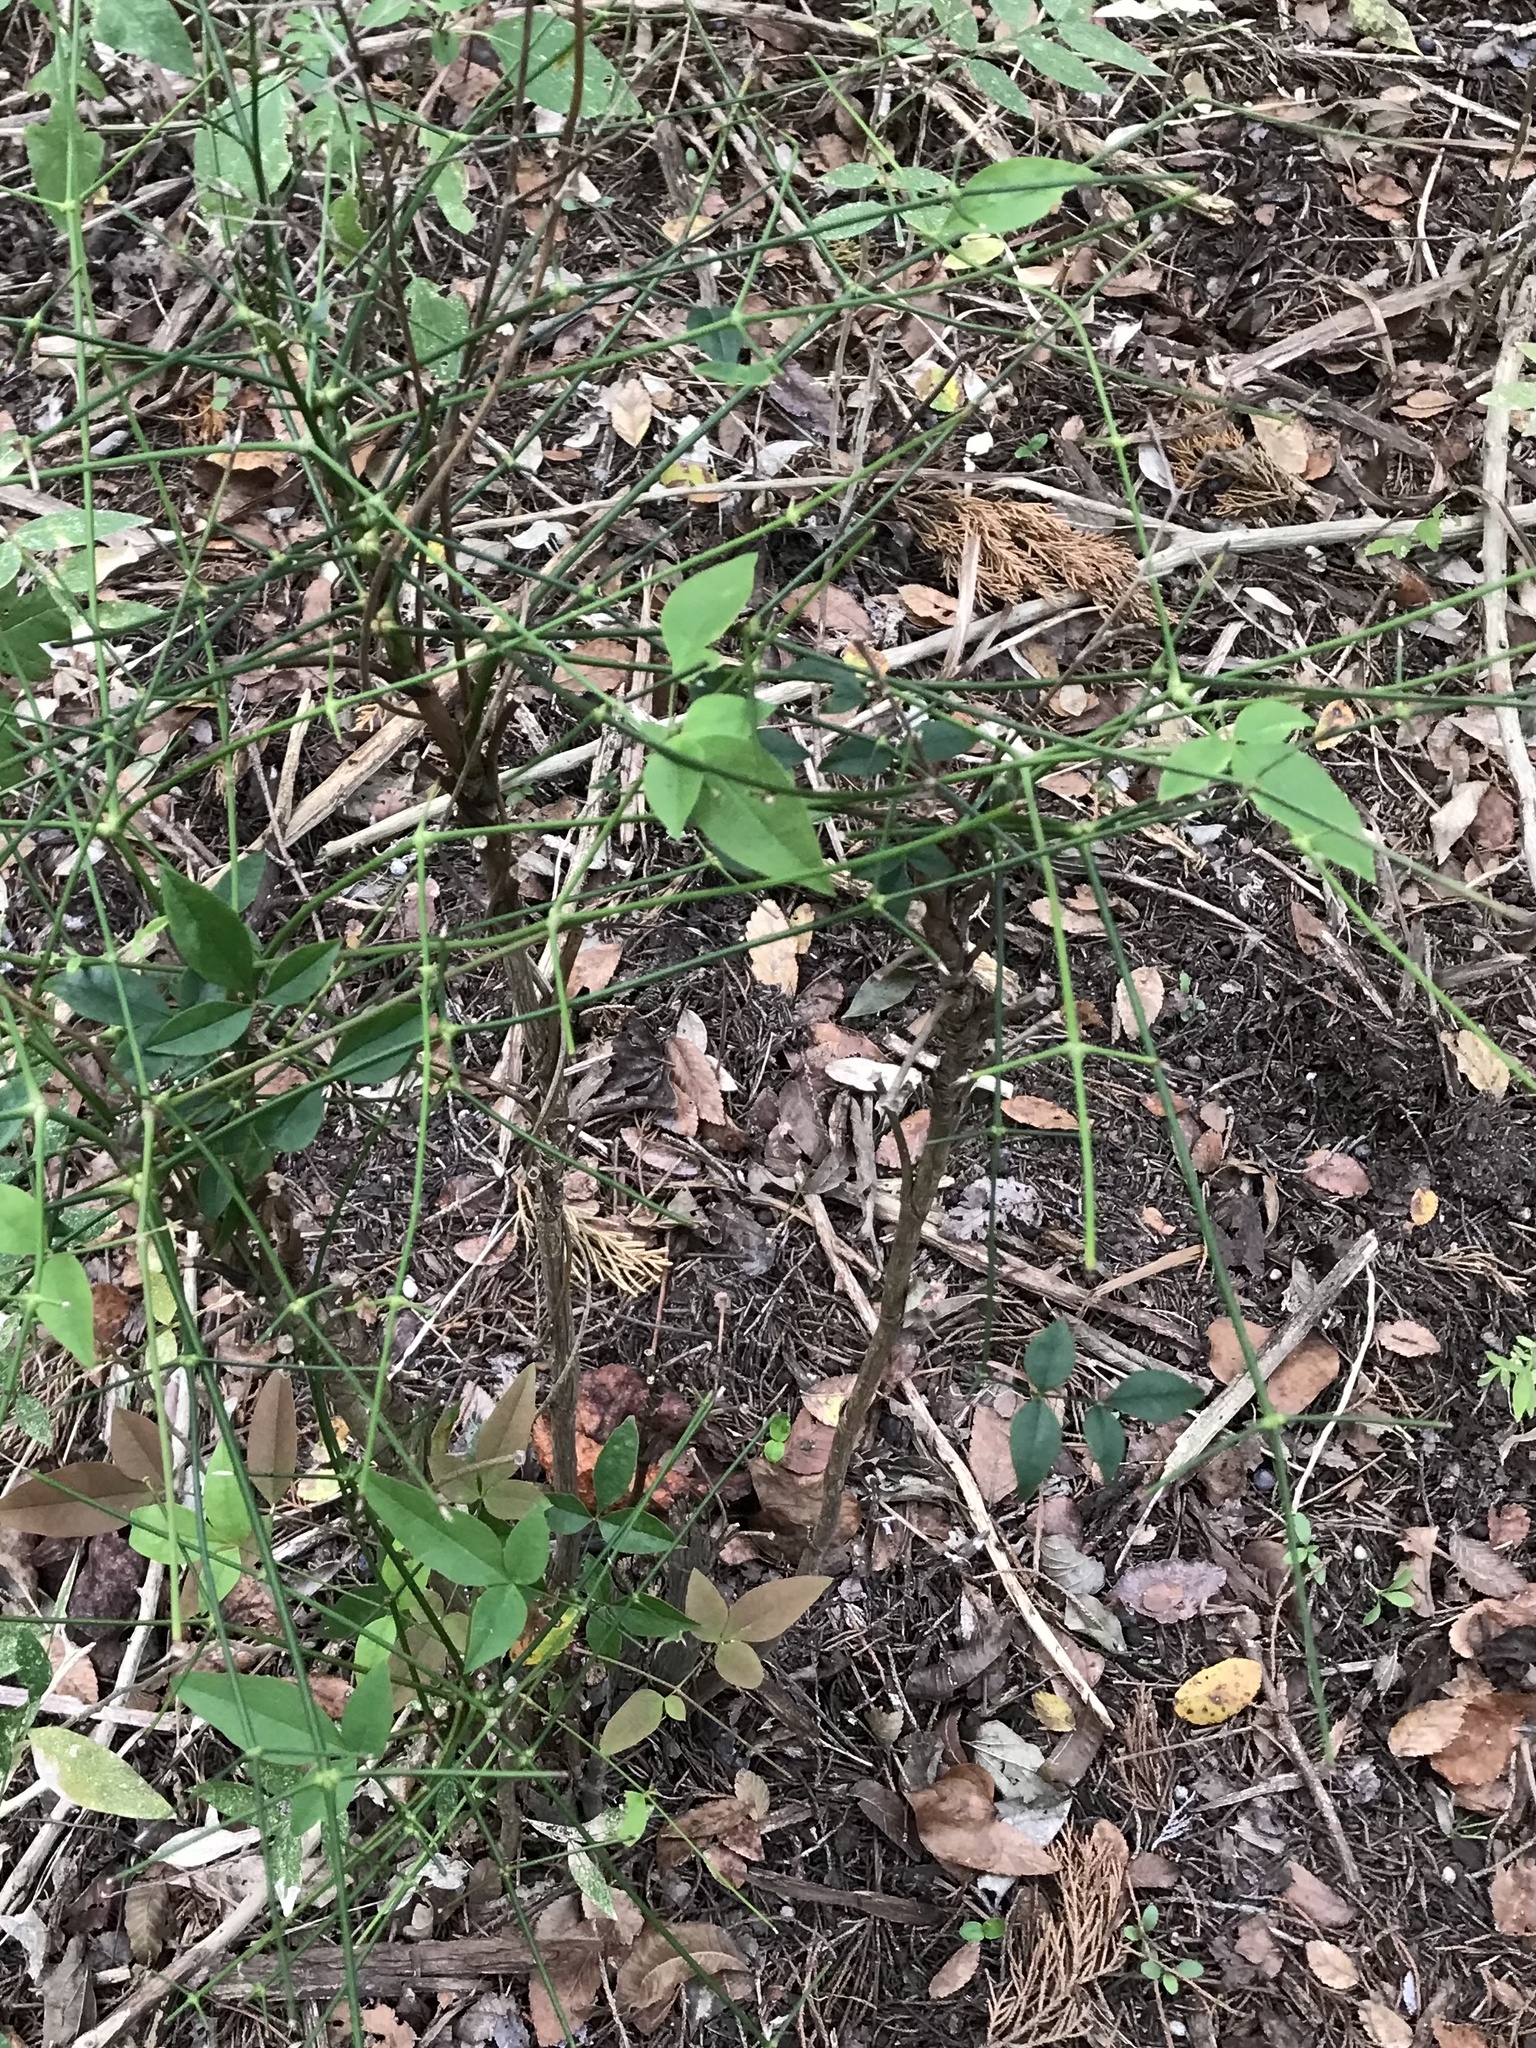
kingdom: Plantae
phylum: Tracheophyta
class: Magnoliopsida
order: Ranunculales
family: Berberidaceae
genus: Nandina
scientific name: Nandina domestica
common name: Sacred bamboo
